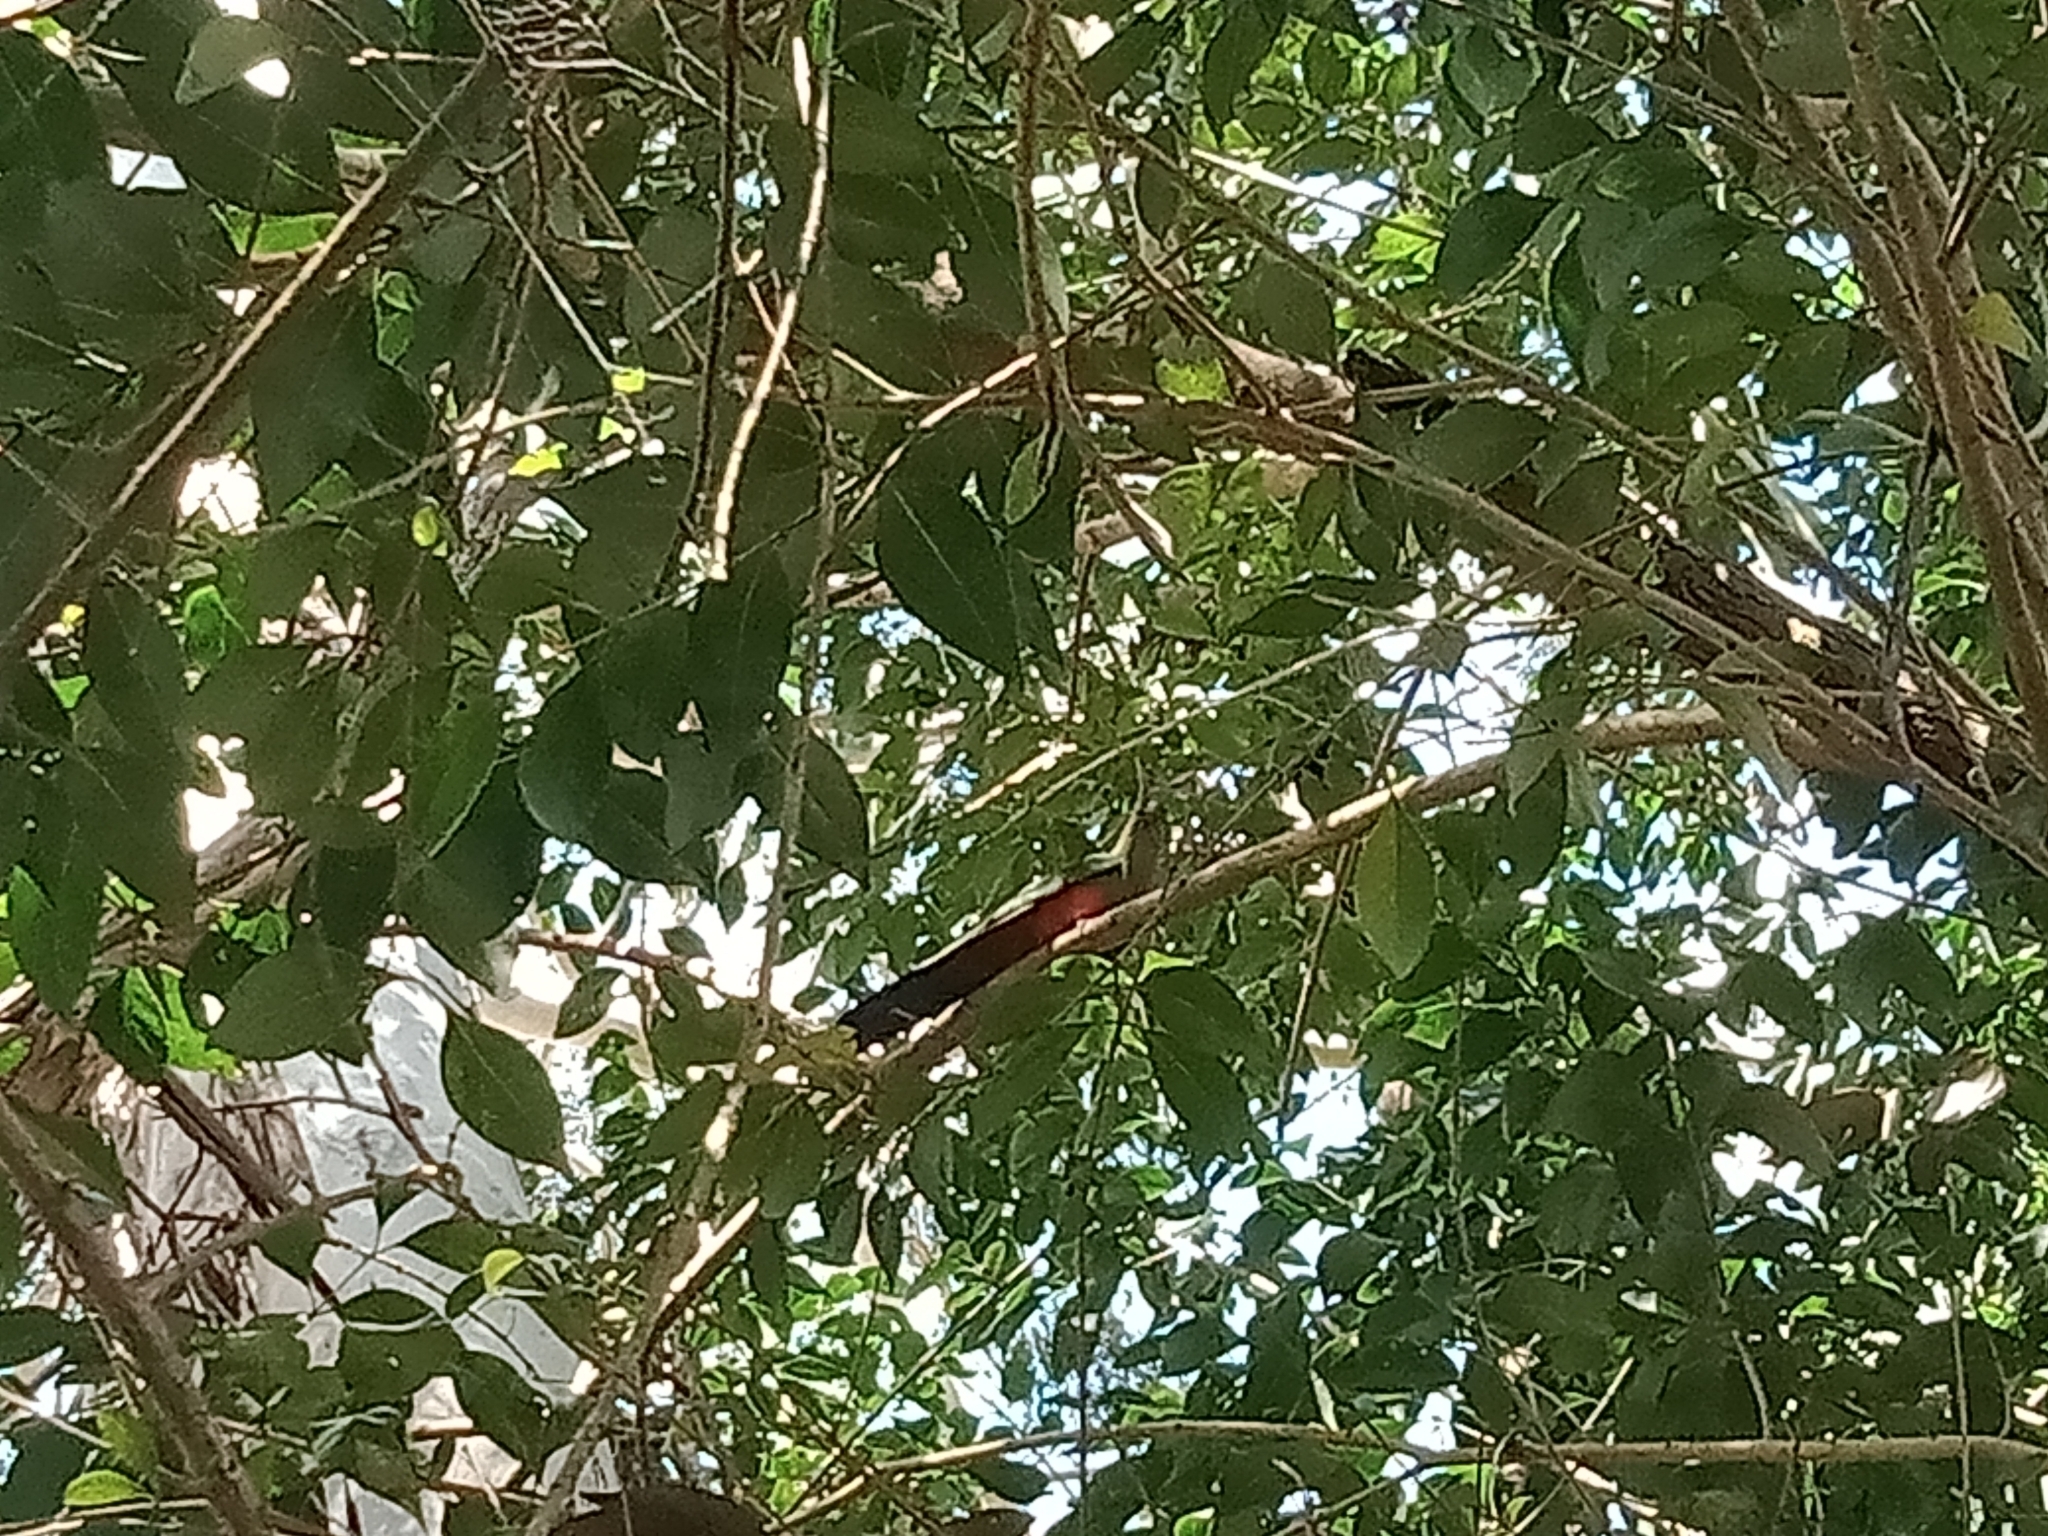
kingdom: Animalia
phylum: Chordata
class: Aves
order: Psittaciformes
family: Psittacidae
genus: Alisterus
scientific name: Alisterus scapularis
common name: Australian king parrot
